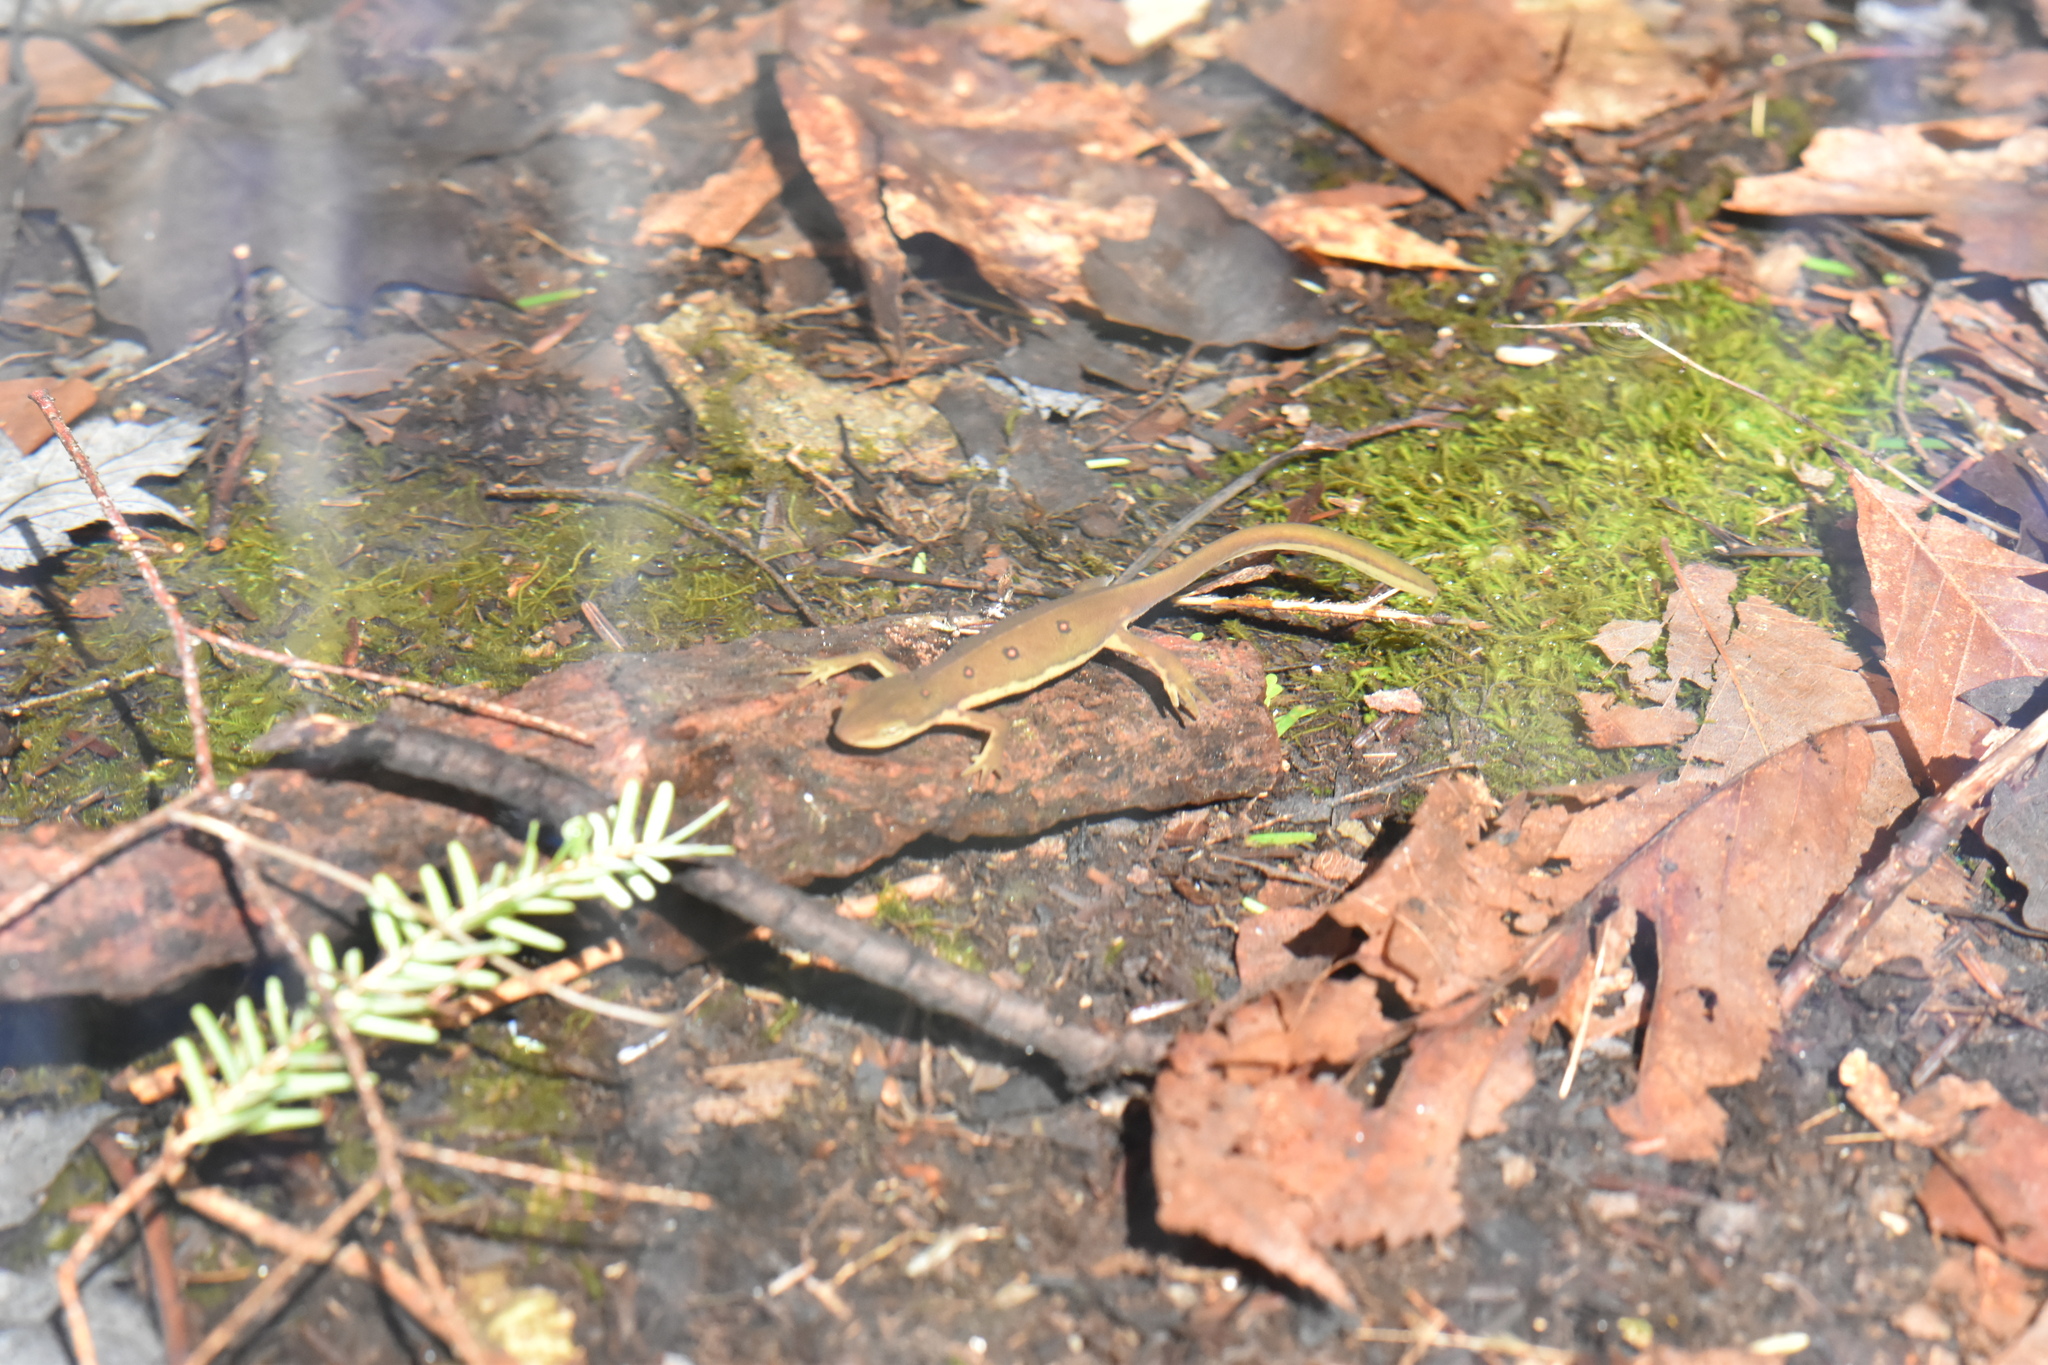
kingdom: Animalia
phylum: Chordata
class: Amphibia
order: Caudata
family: Salamandridae
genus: Notophthalmus
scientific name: Notophthalmus viridescens
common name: Eastern newt
